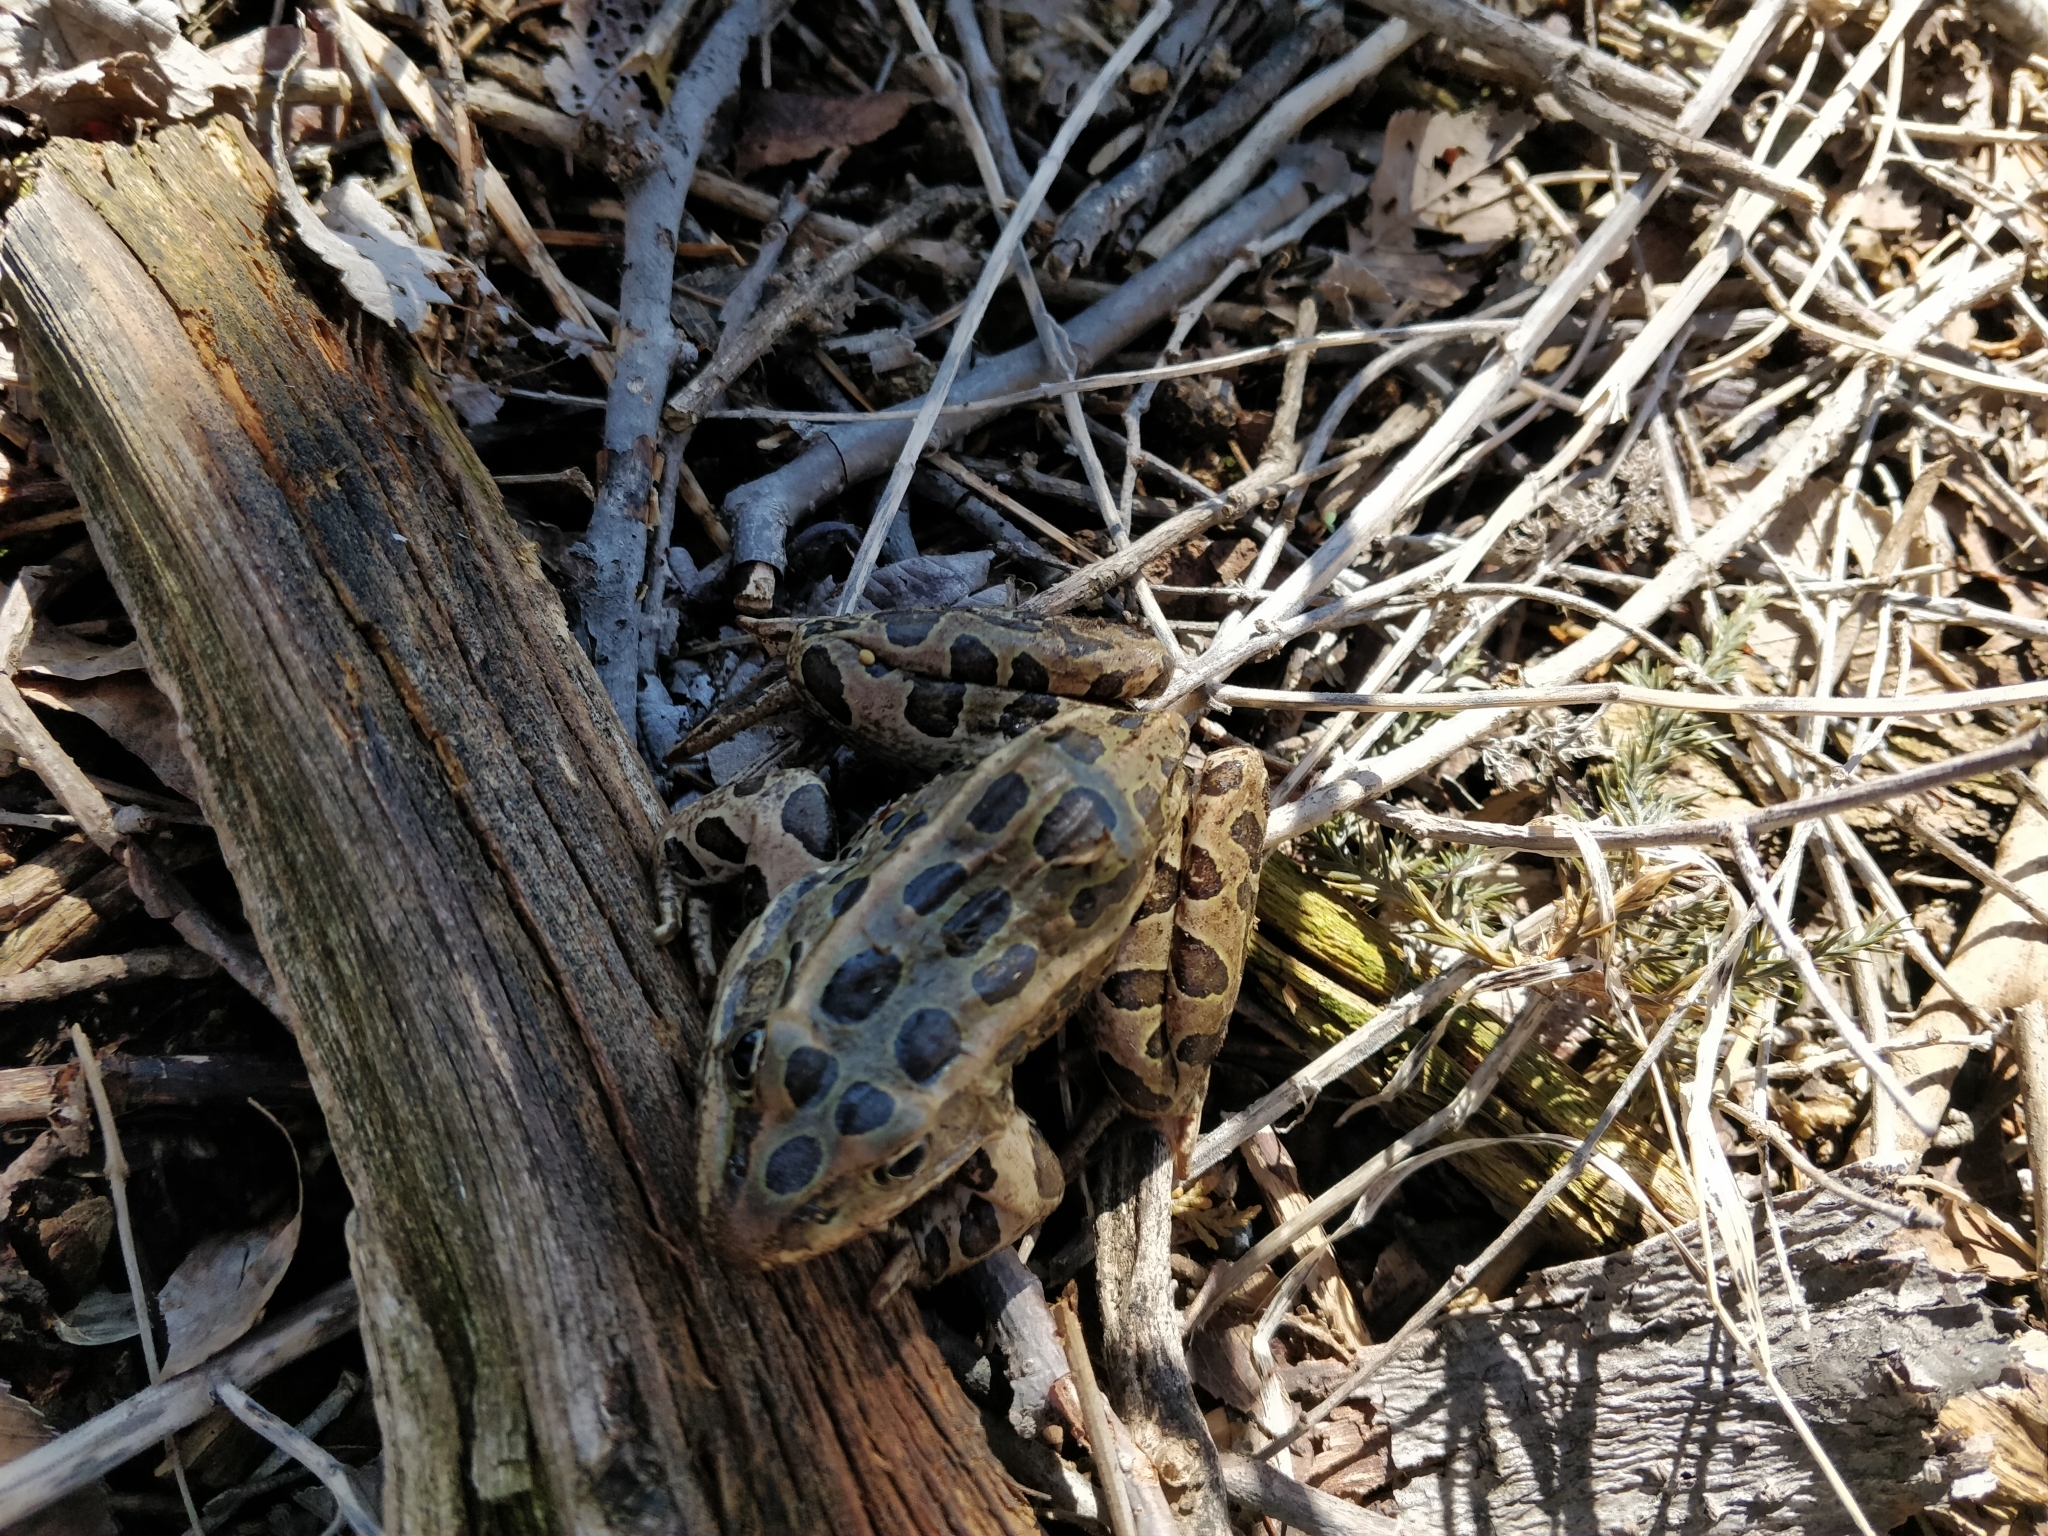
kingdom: Animalia
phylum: Chordata
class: Amphibia
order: Anura
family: Ranidae
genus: Lithobates
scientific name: Lithobates pipiens
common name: Northern leopard frog
